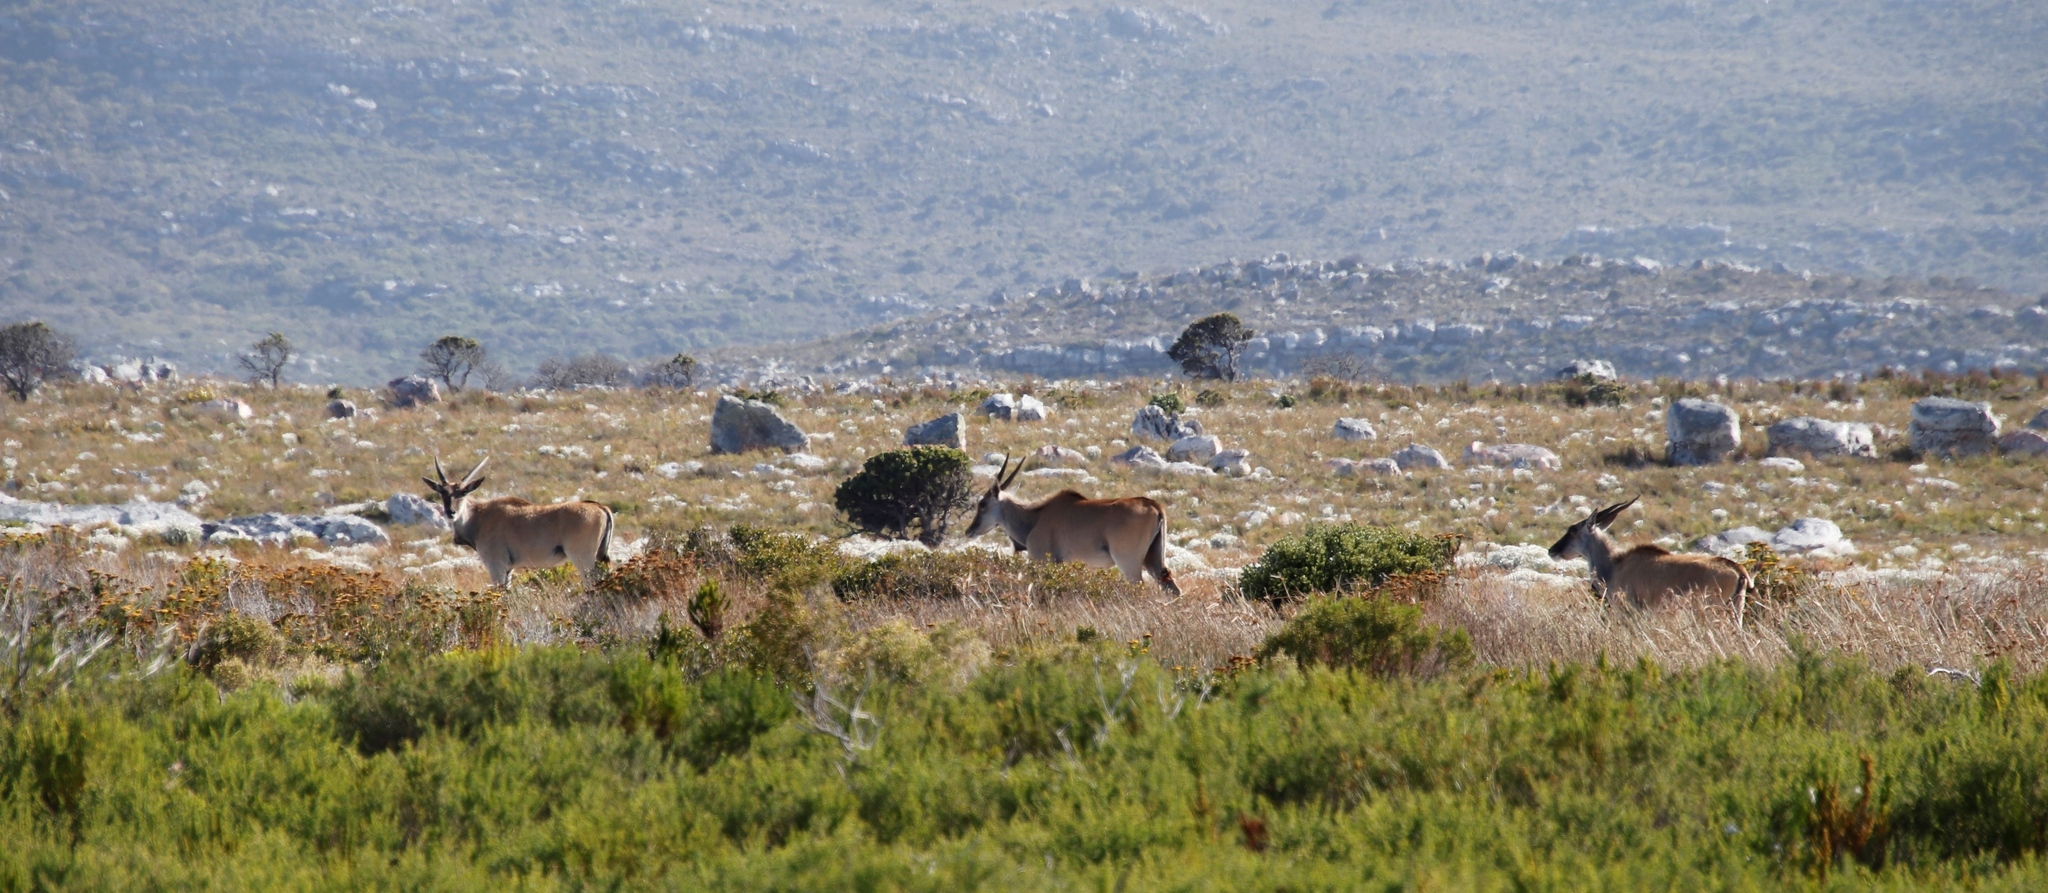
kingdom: Animalia
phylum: Chordata
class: Mammalia
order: Artiodactyla
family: Bovidae
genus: Taurotragus
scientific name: Taurotragus oryx
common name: Common eland
